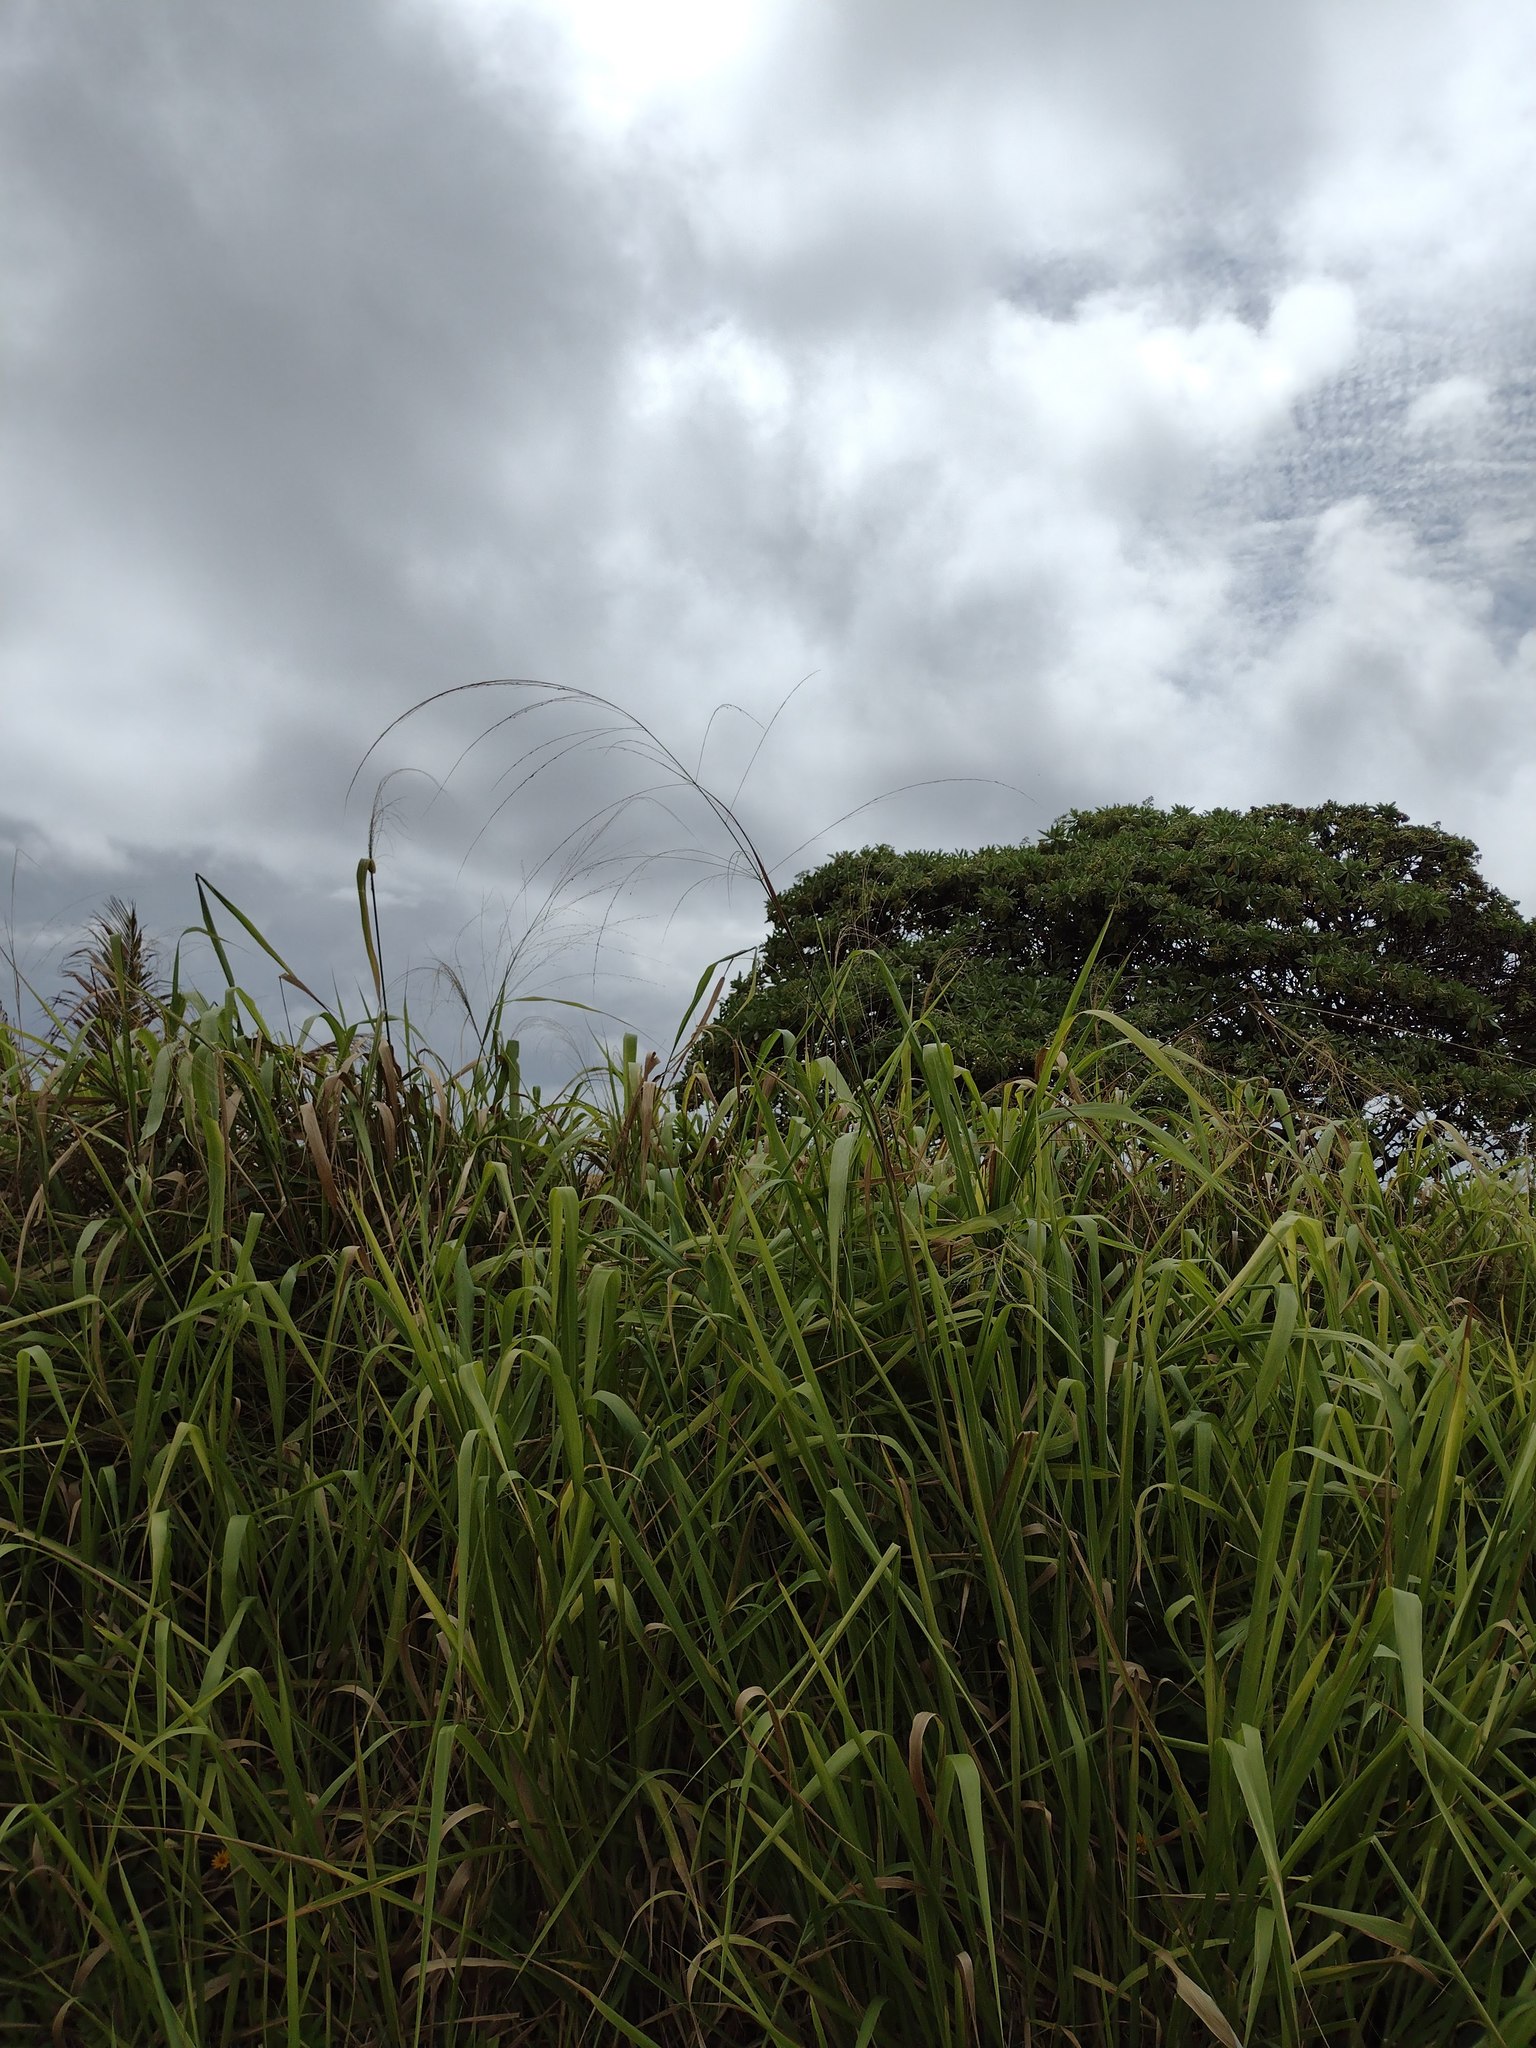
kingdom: Plantae
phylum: Tracheophyta
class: Liliopsida
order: Poales
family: Poaceae
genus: Megathyrsus
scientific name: Megathyrsus maximus
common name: Guineagrass
